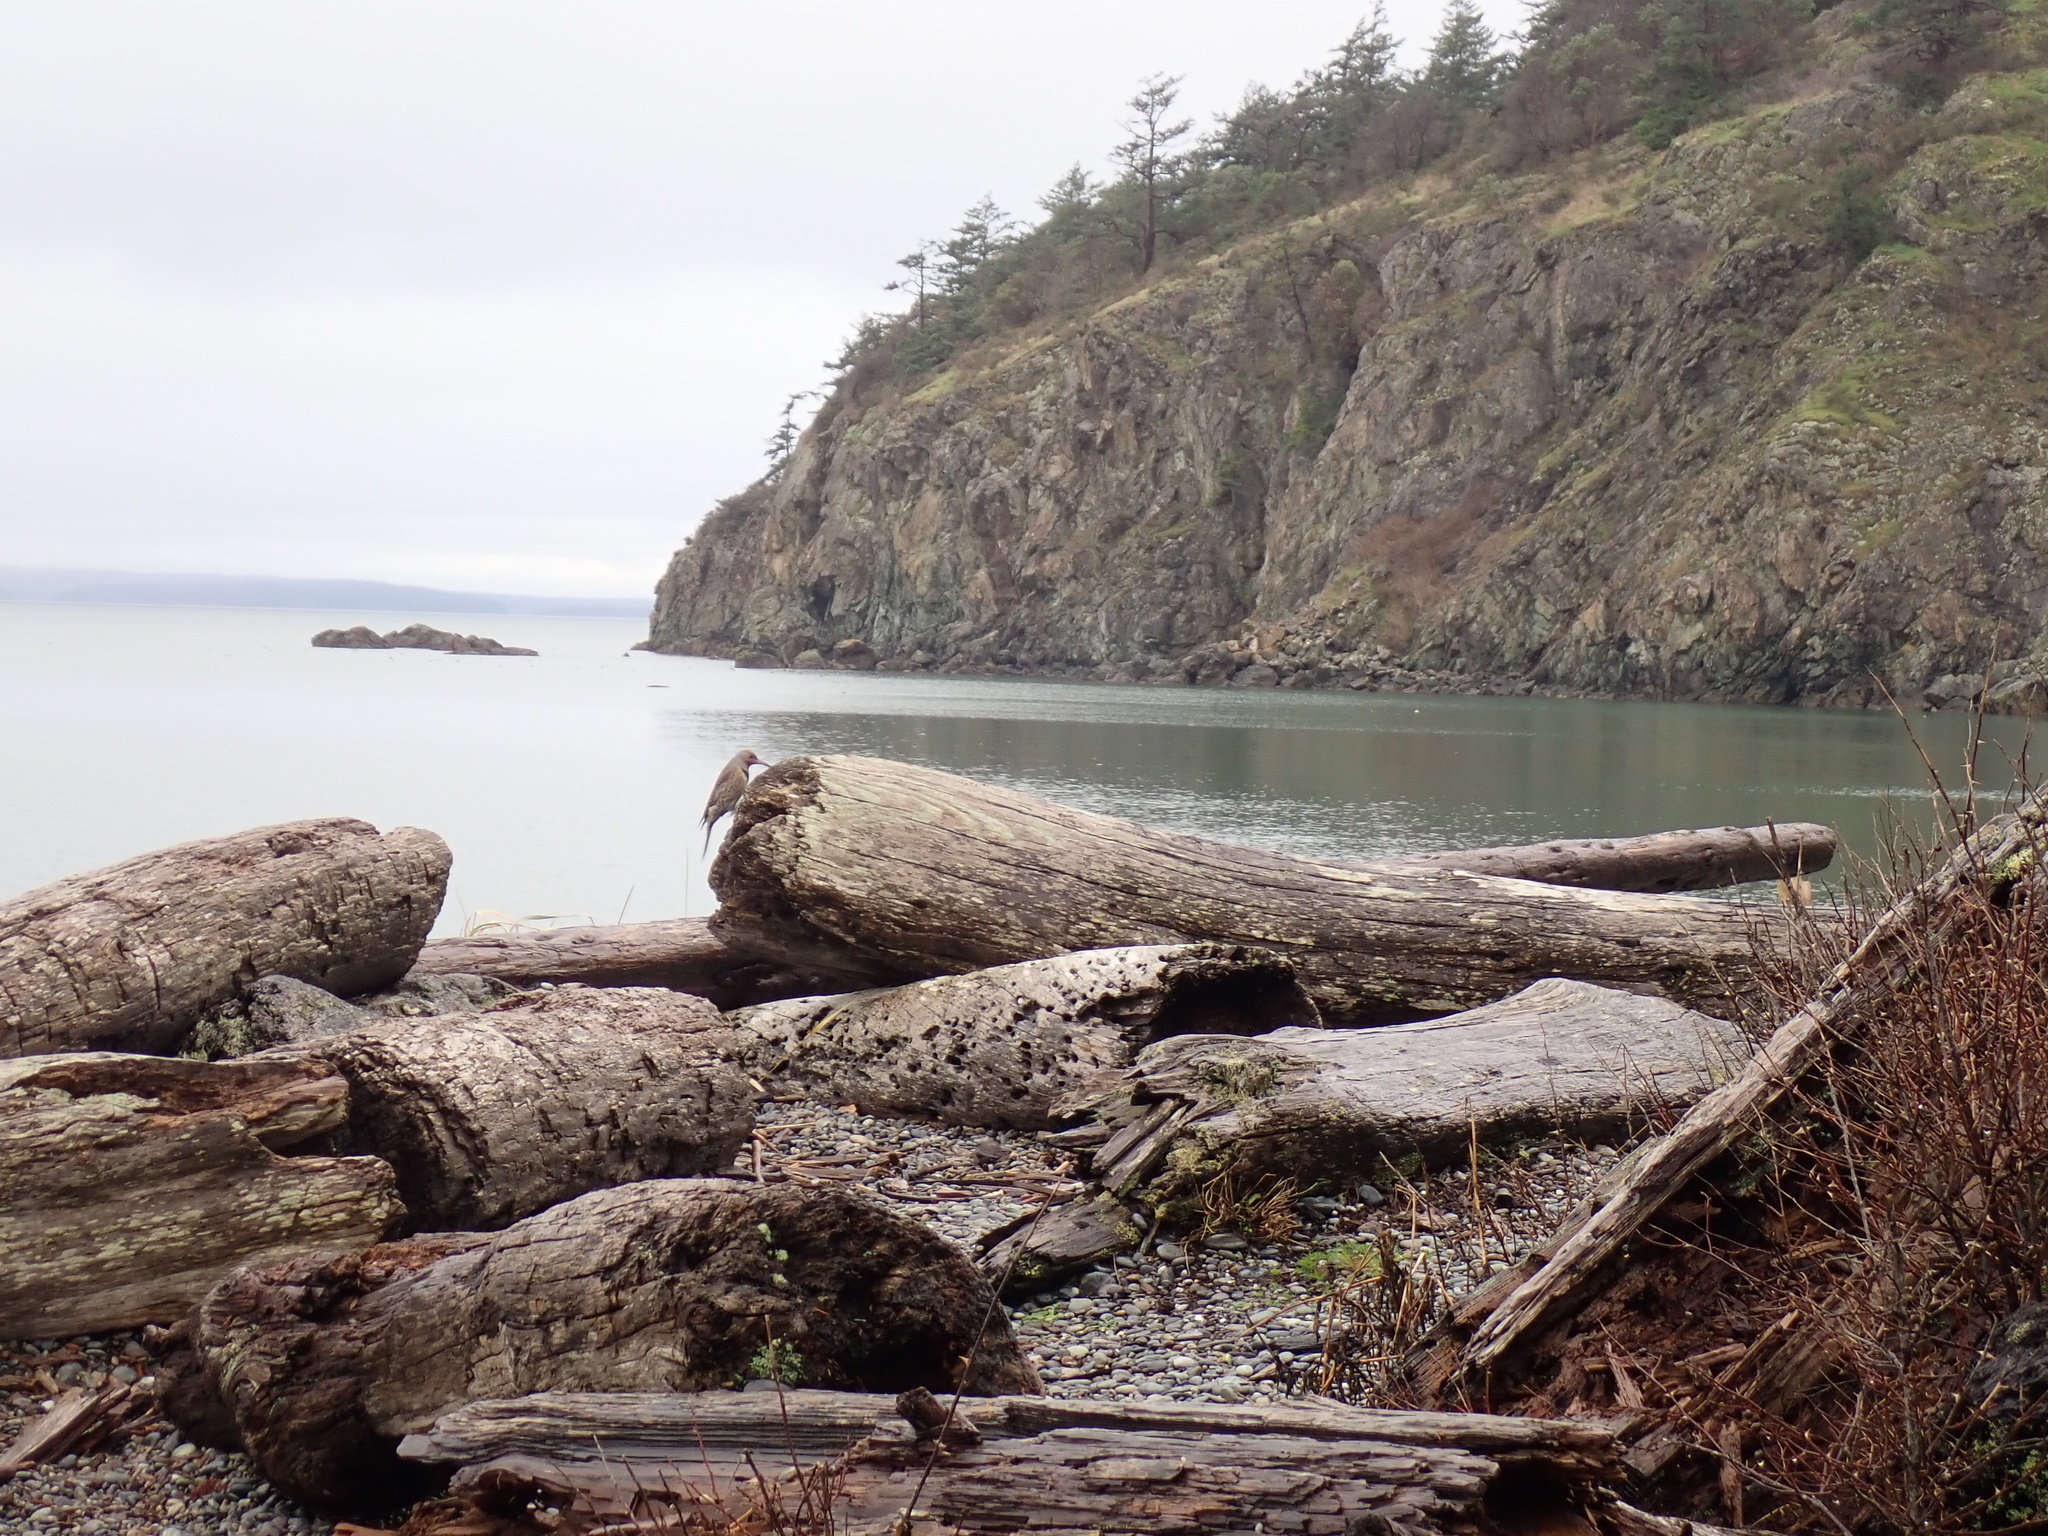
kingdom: Animalia
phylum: Chordata
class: Aves
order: Piciformes
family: Picidae
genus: Colaptes
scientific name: Colaptes auratus
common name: Northern flicker
